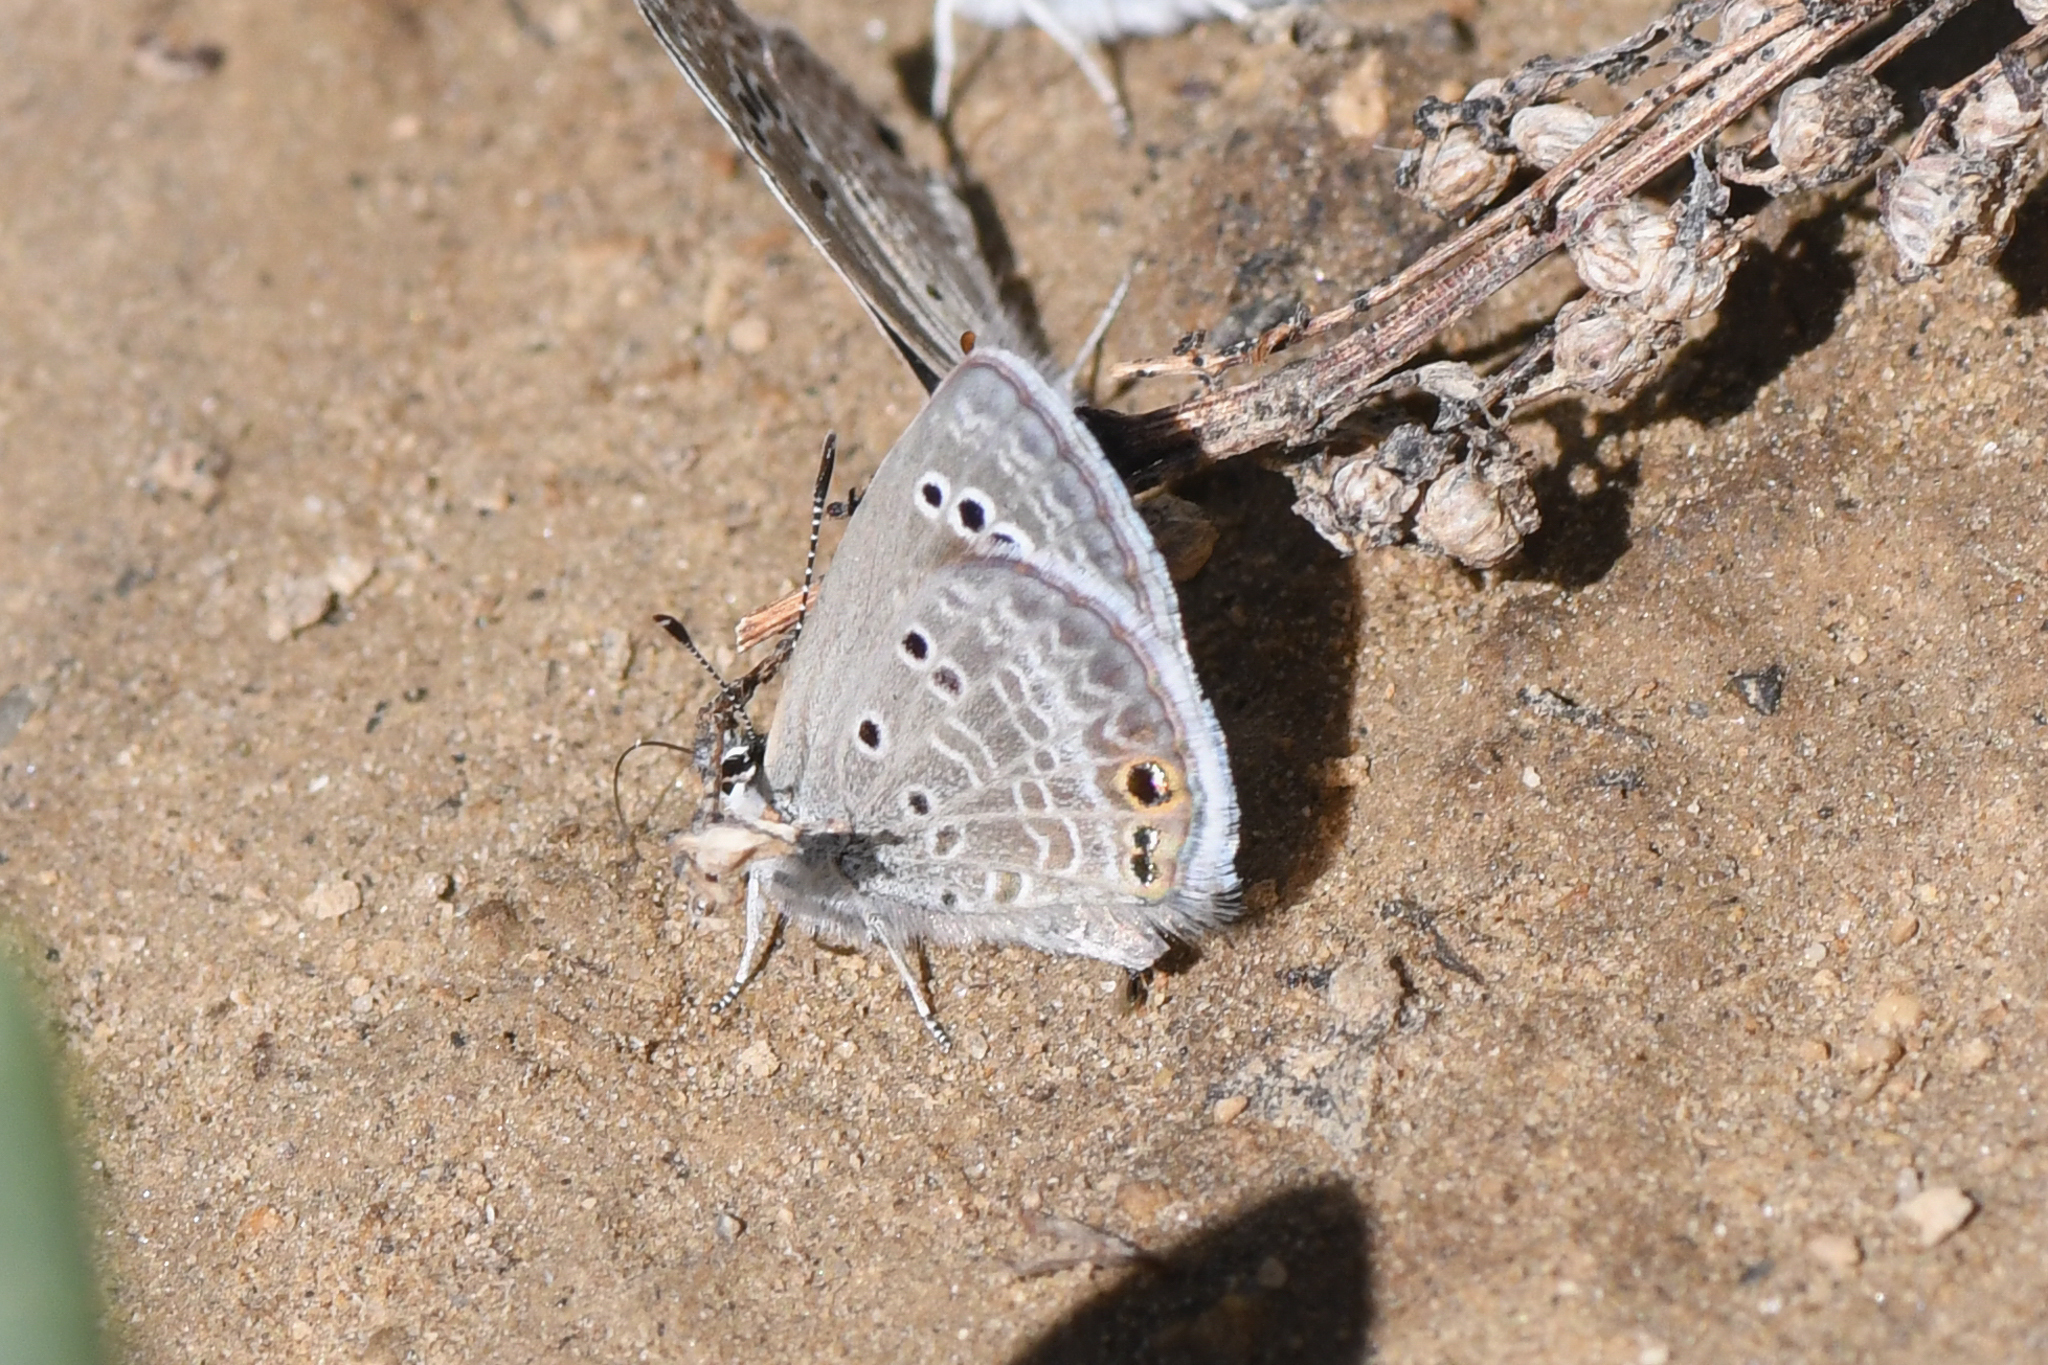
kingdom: Animalia
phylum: Arthropoda
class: Insecta
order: Lepidoptera
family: Lycaenidae
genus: Echinargus
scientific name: Echinargus isola
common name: Reakirt's blue
